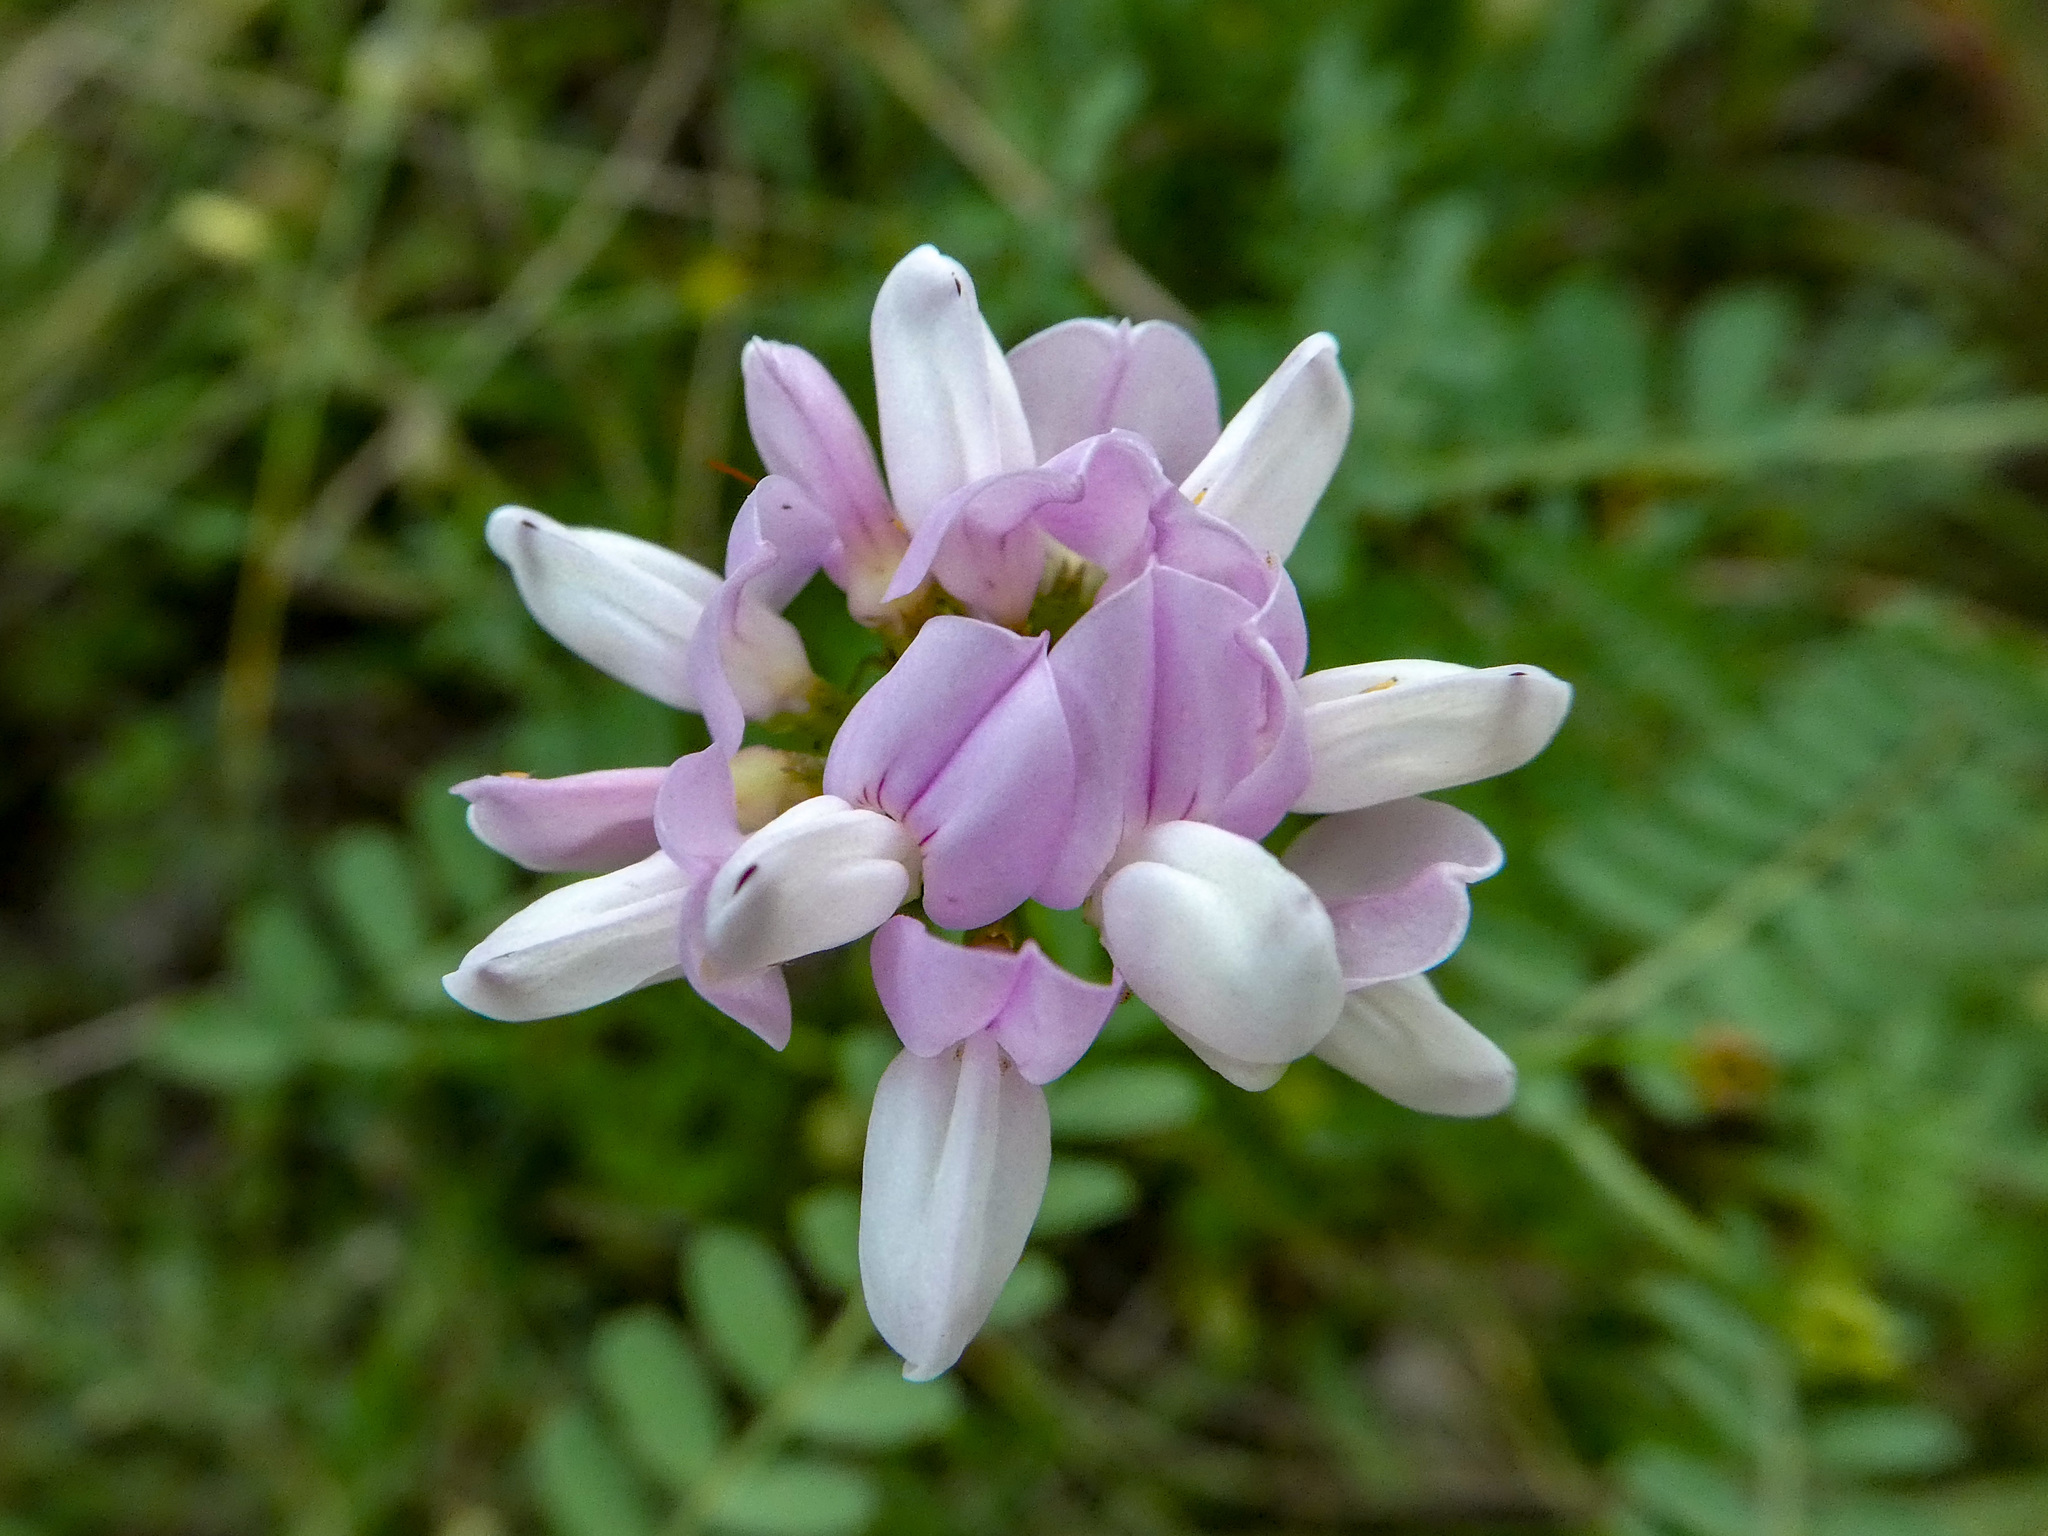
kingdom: Plantae
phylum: Tracheophyta
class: Magnoliopsida
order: Fabales
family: Fabaceae
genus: Coronilla
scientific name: Coronilla varia
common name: Crownvetch
